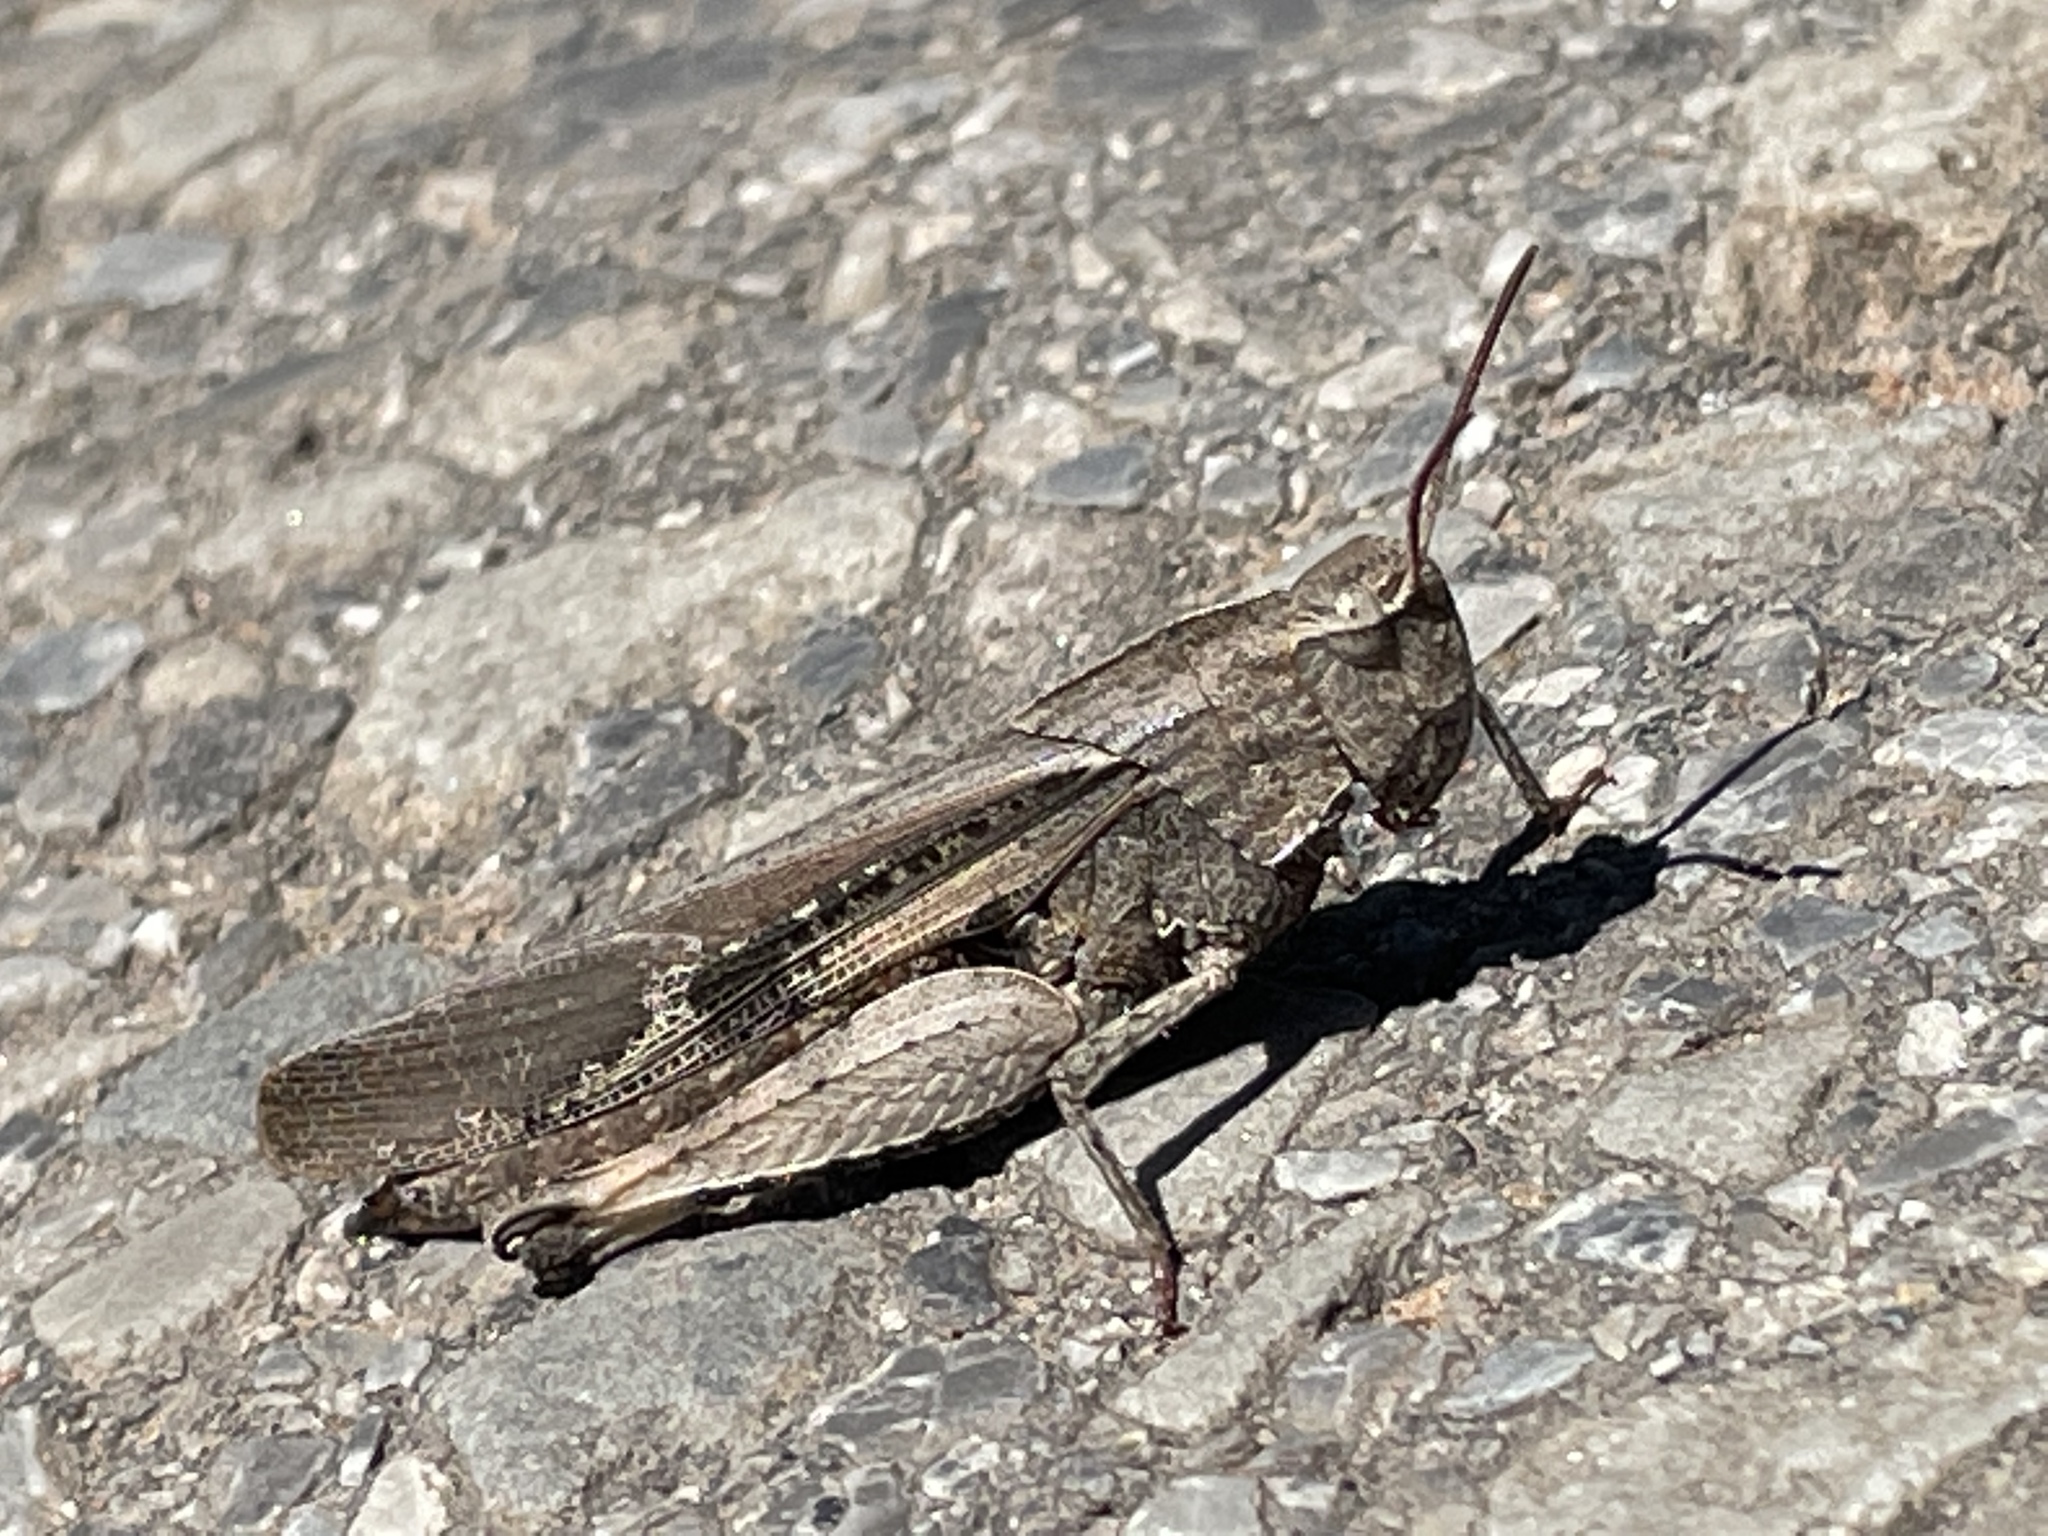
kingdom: Animalia
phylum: Arthropoda
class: Insecta
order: Orthoptera
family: Acrididae
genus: Chortophaga
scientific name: Chortophaga viridifasciata
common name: Green-striped grasshopper
